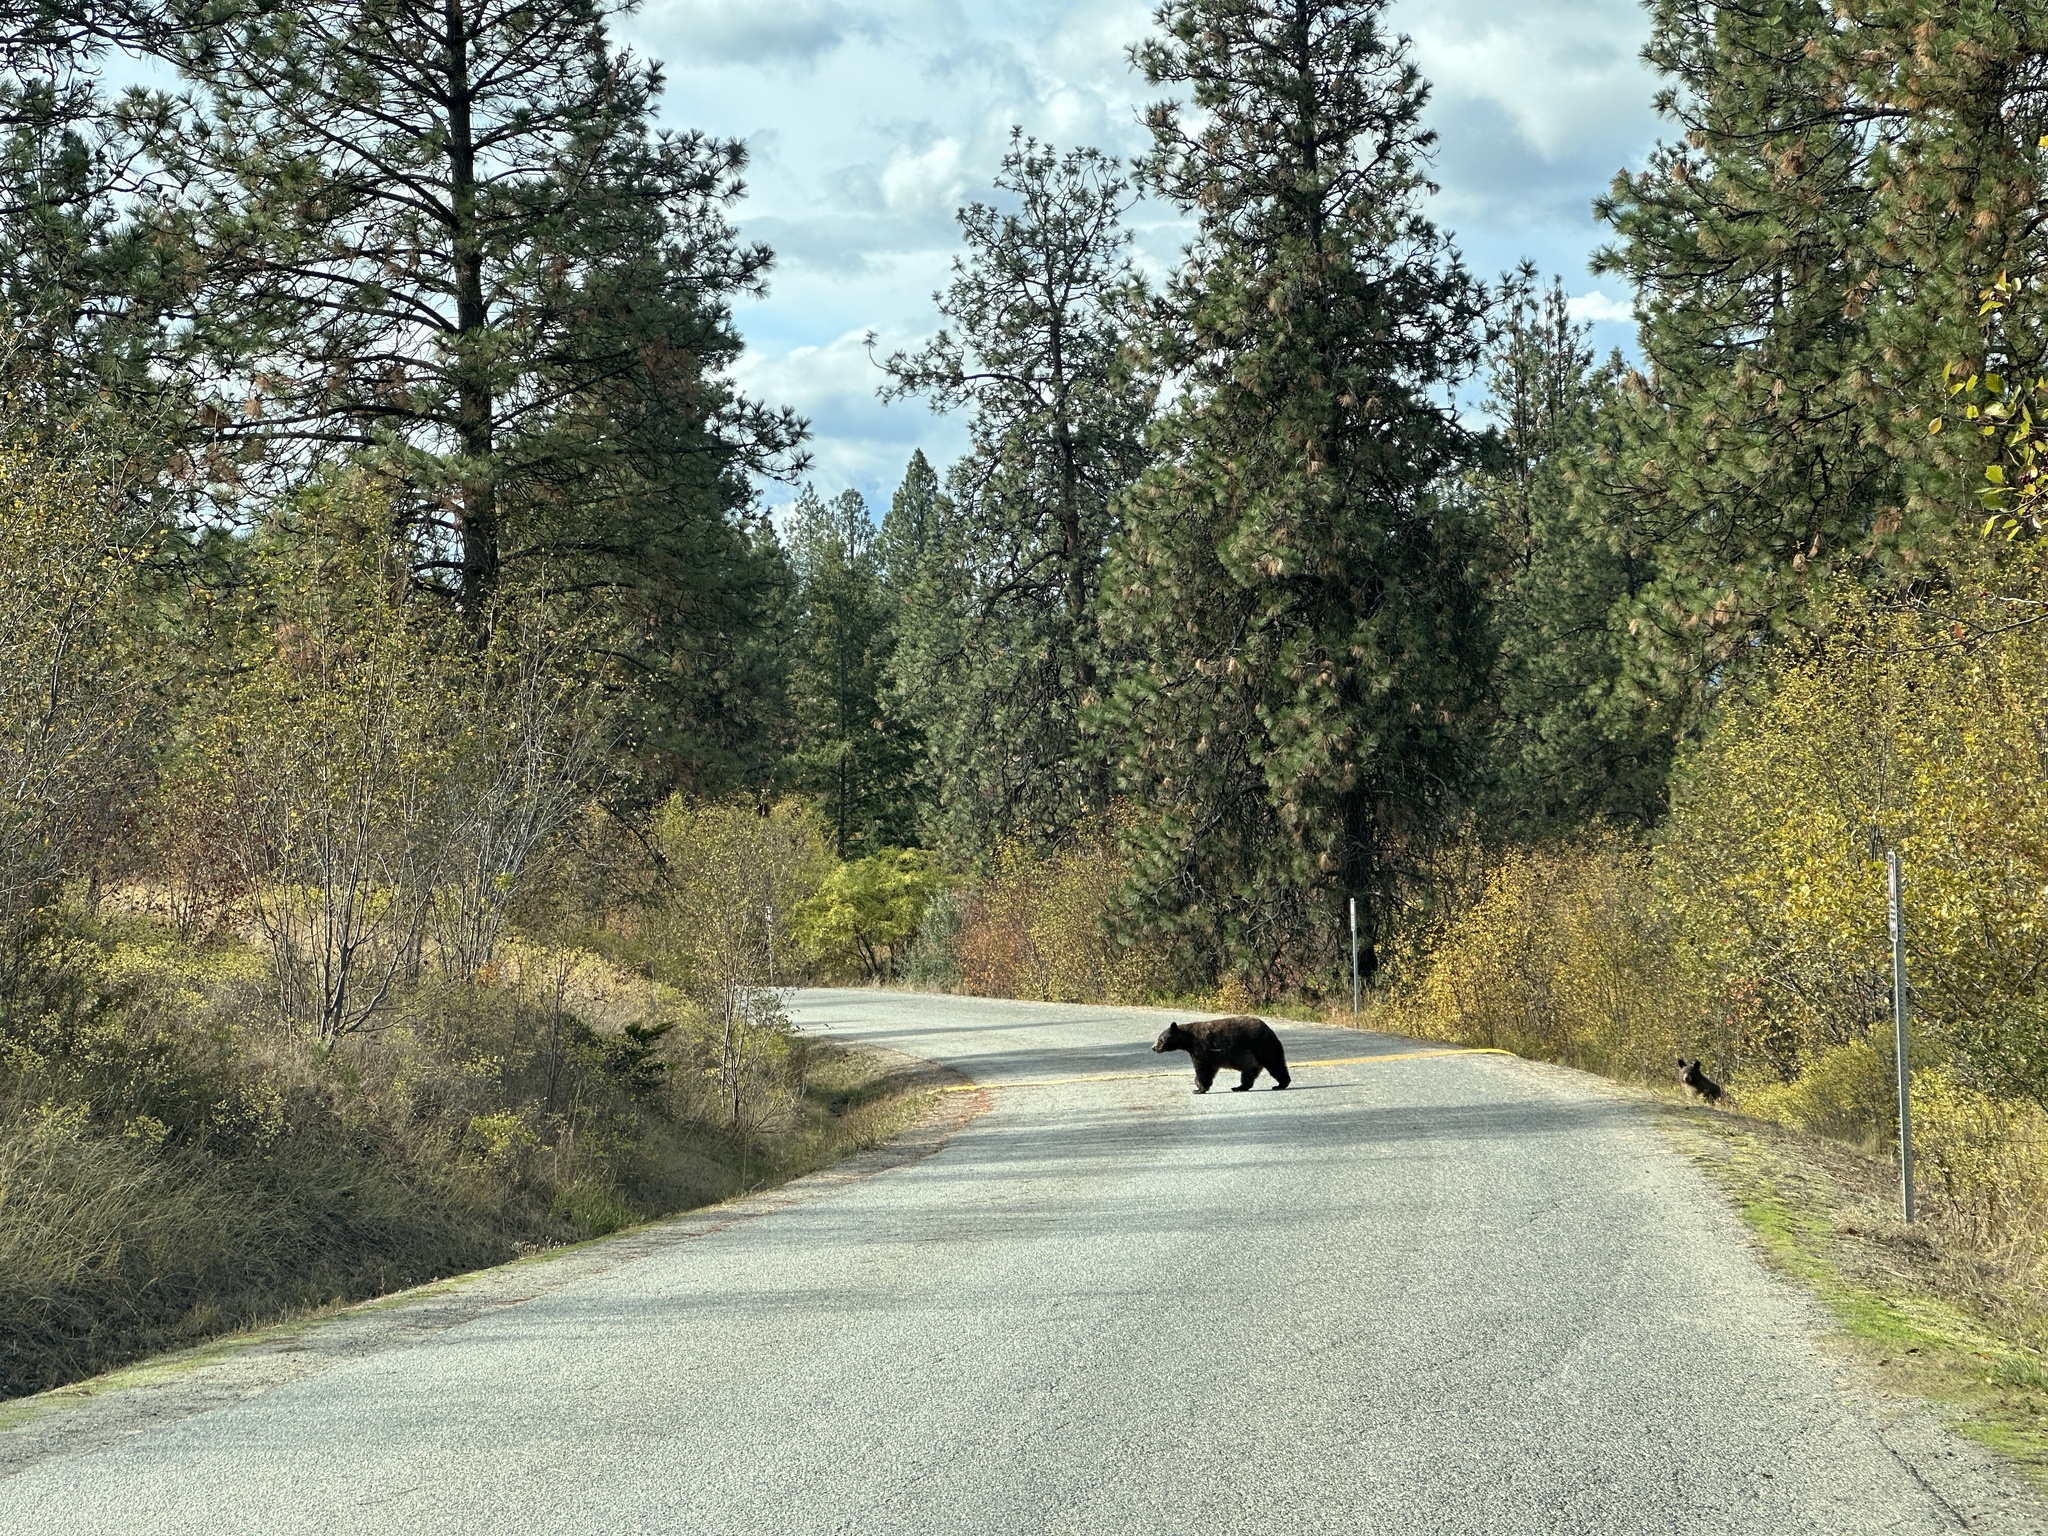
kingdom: Animalia
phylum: Chordata
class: Mammalia
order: Carnivora
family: Ursidae
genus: Ursus
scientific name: Ursus americanus
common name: American black bear
